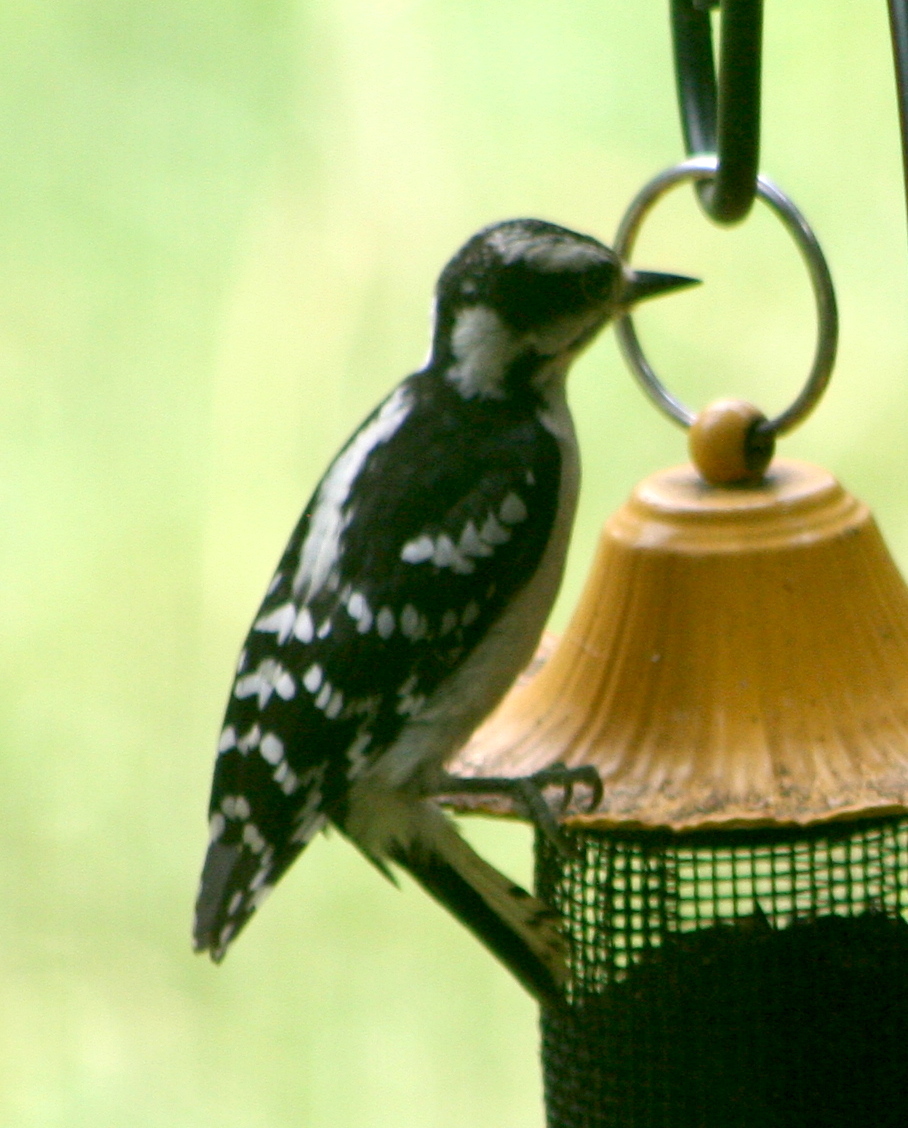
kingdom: Animalia
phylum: Chordata
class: Aves
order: Piciformes
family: Picidae
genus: Dryobates
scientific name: Dryobates pubescens
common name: Downy woodpecker
